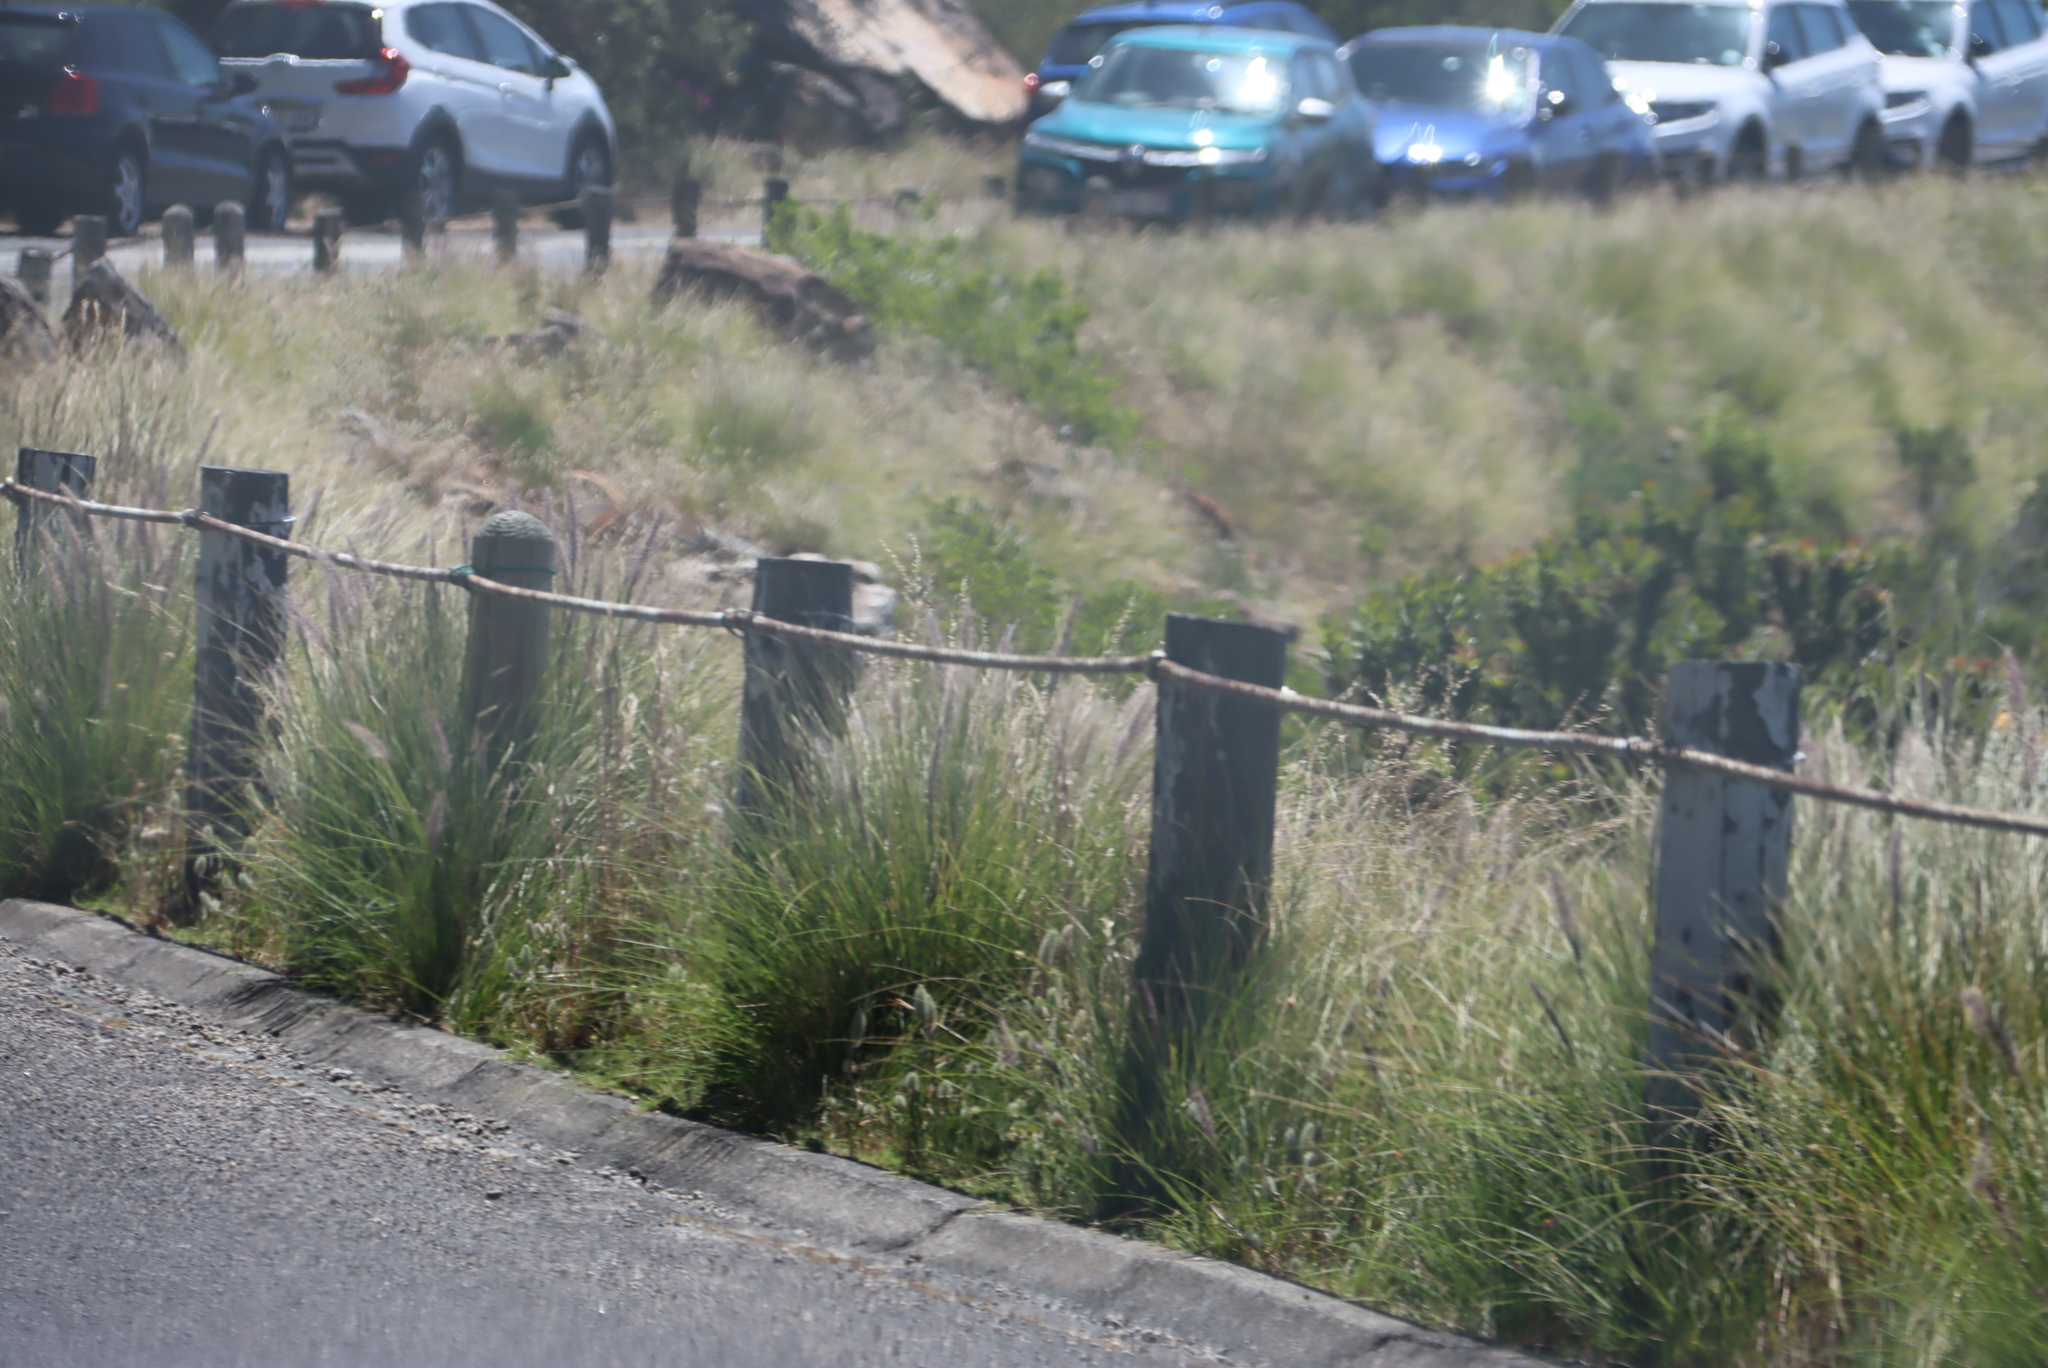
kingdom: Plantae
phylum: Tracheophyta
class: Liliopsida
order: Poales
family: Poaceae
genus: Cenchrus
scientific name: Cenchrus setaceus
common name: Crimson fountaingrass
